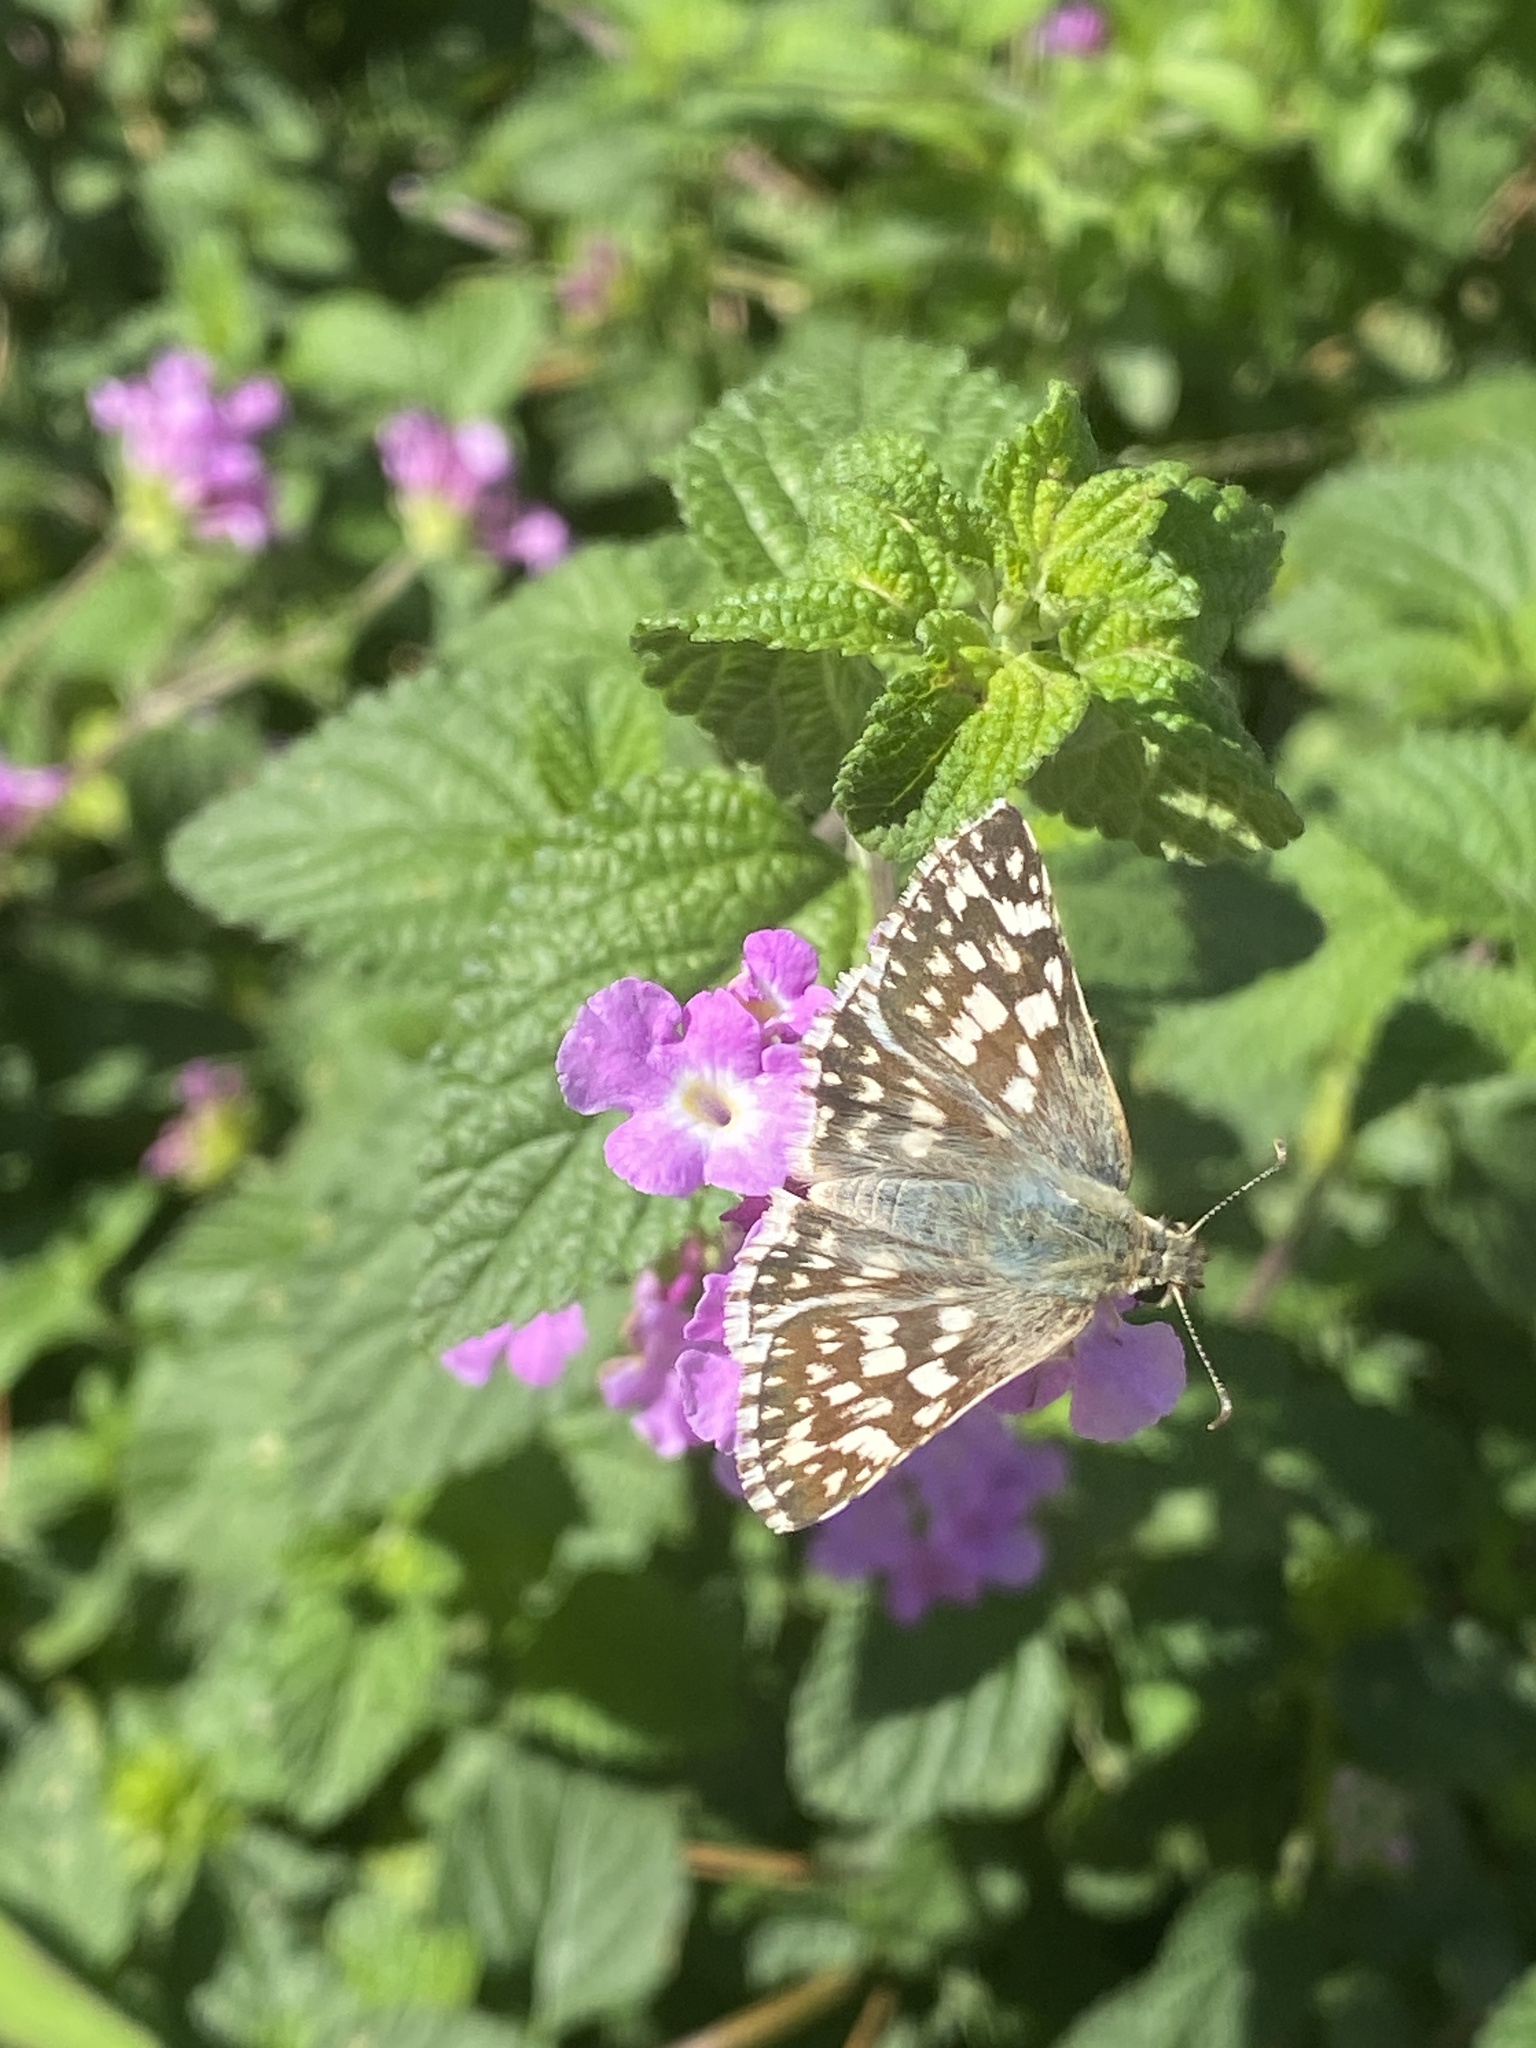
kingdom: Animalia
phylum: Arthropoda
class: Insecta
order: Lepidoptera
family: Hesperiidae
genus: Heliopetes
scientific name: Heliopetes americanus
